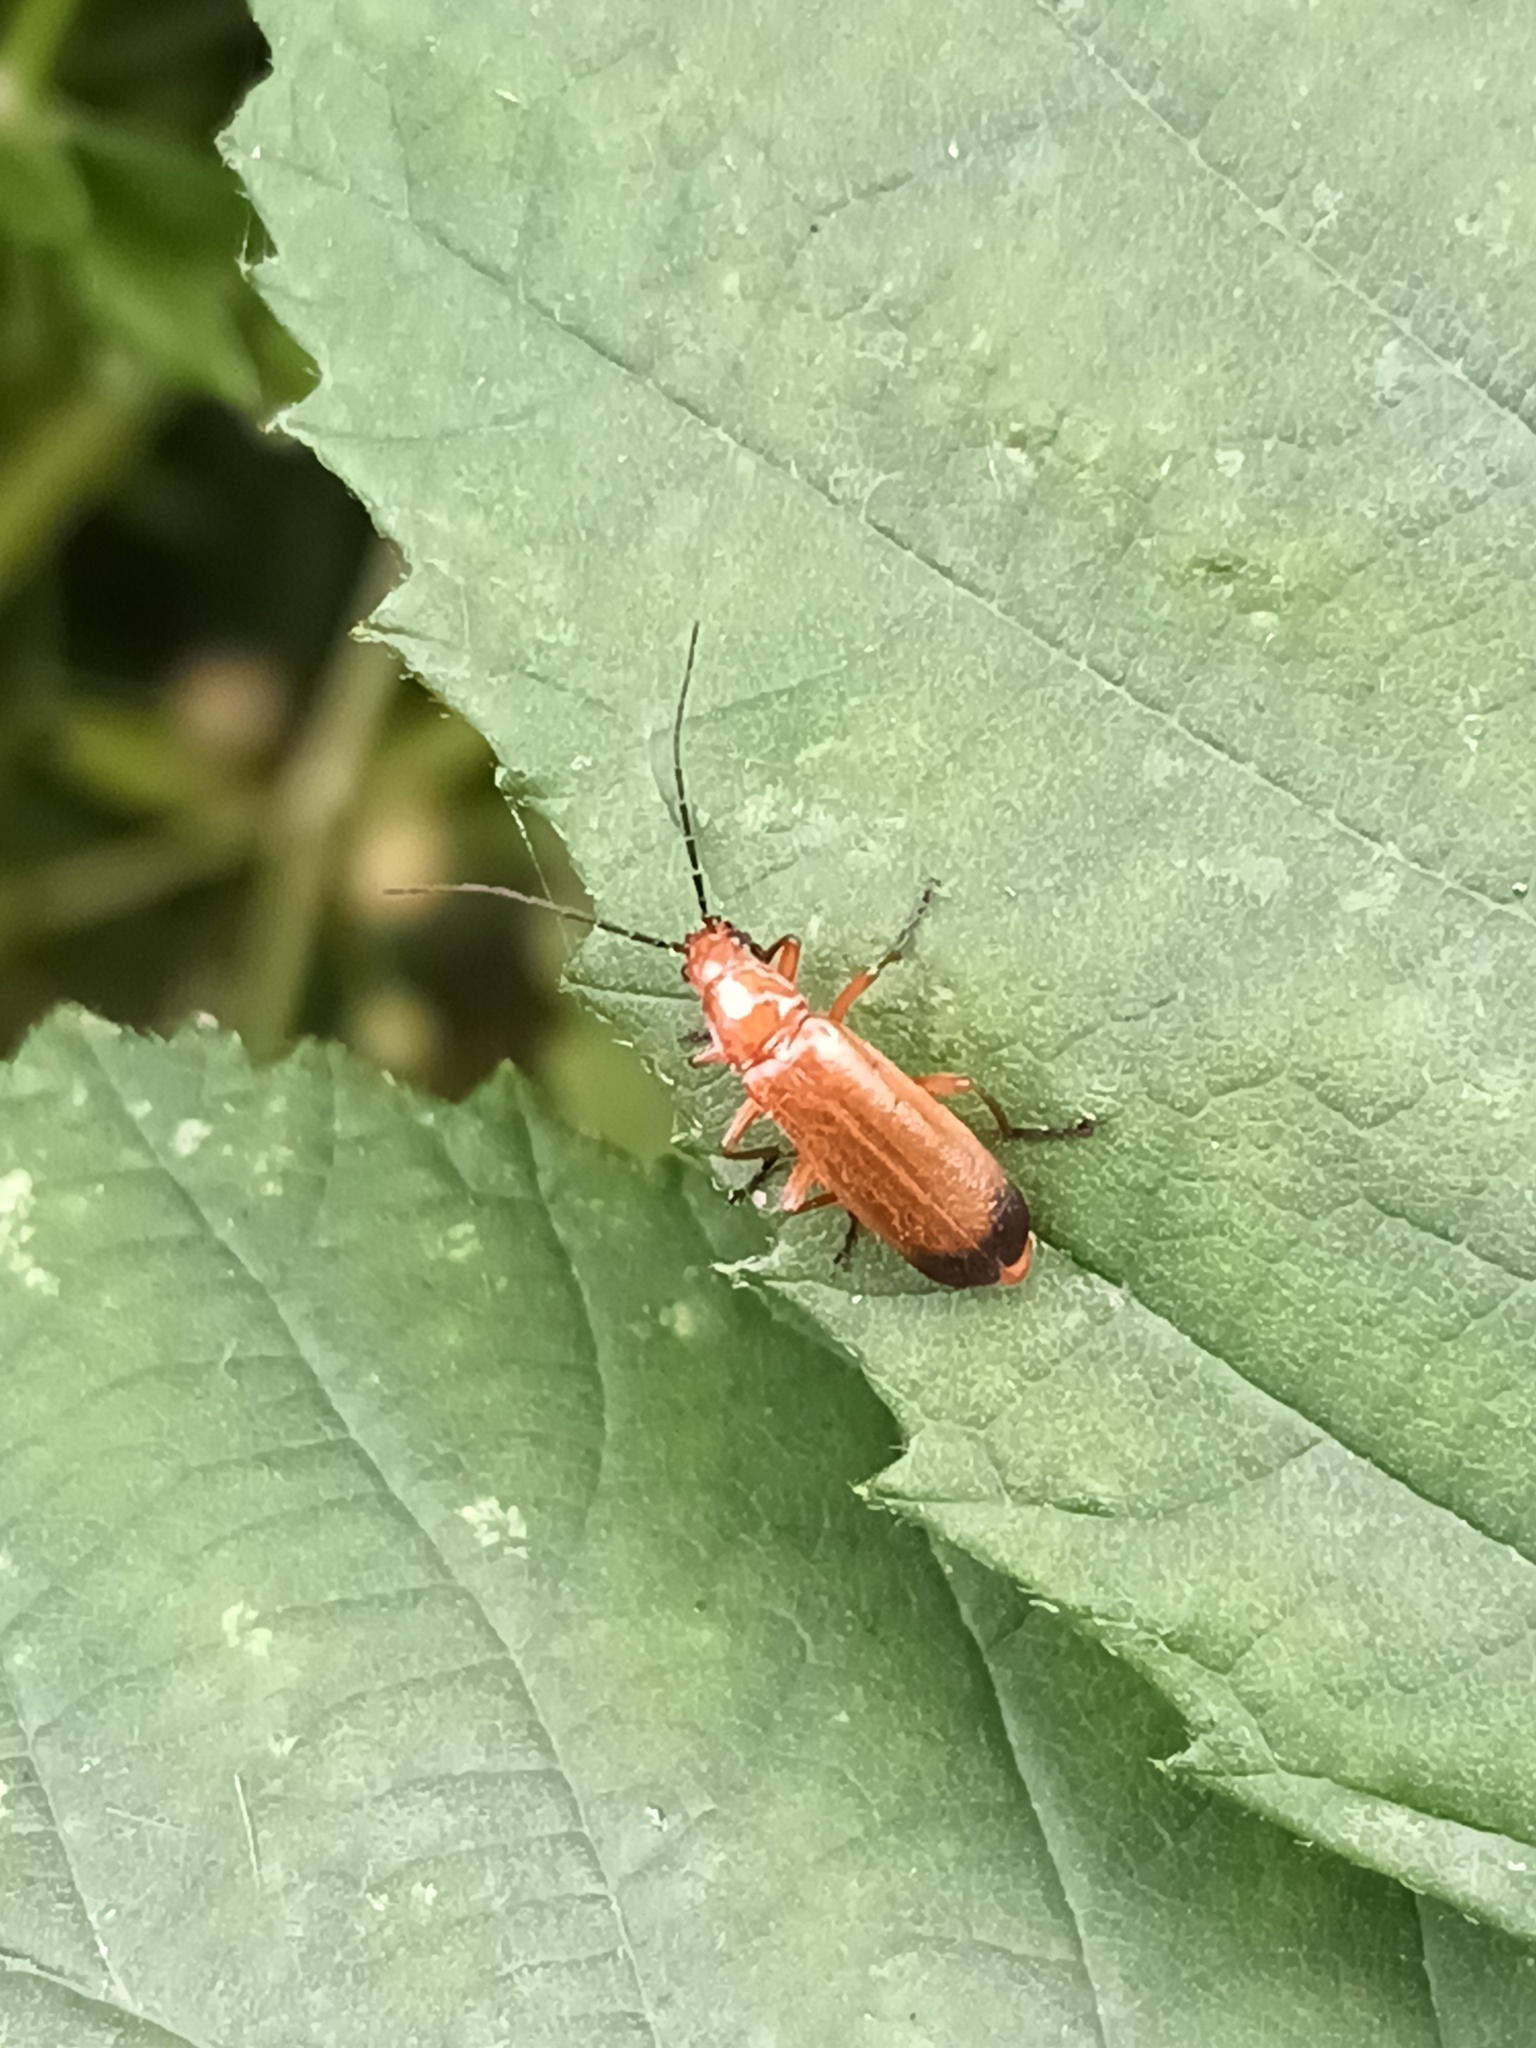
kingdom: Animalia
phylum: Arthropoda
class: Insecta
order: Coleoptera
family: Cantharidae
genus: Rhagonycha
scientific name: Rhagonycha fulva
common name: Common red soldier beetle
